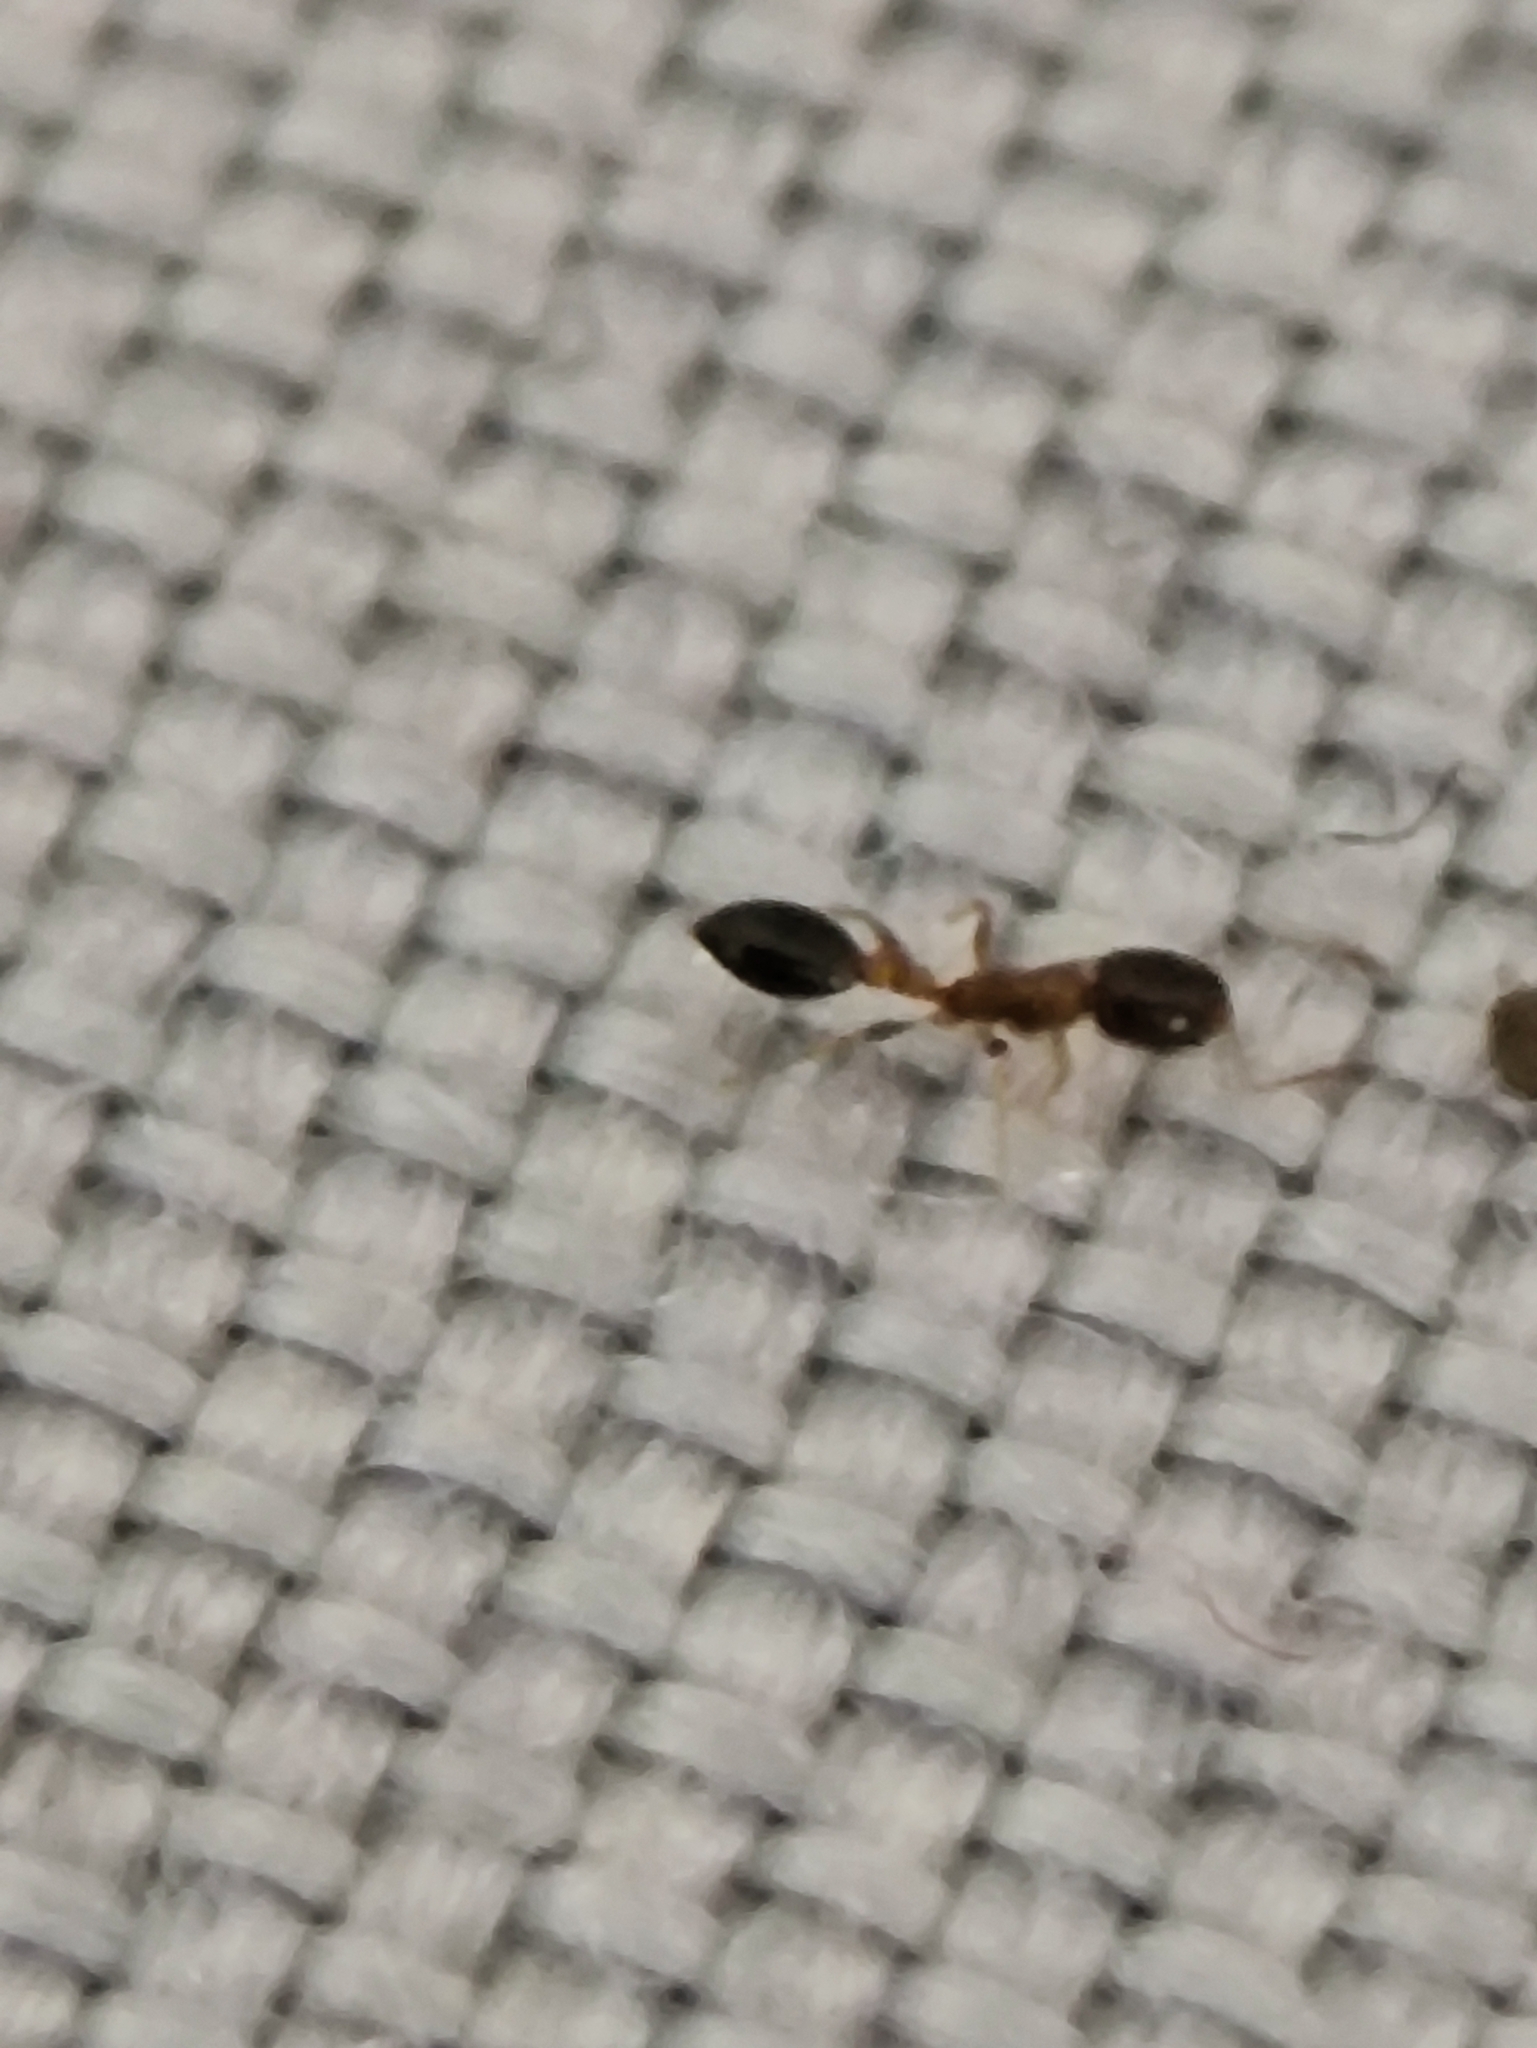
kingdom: Animalia
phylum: Arthropoda
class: Insecta
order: Hymenoptera
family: Formicidae
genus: Monomorium
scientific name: Monomorium floricola
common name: Bicolored trailing ant
